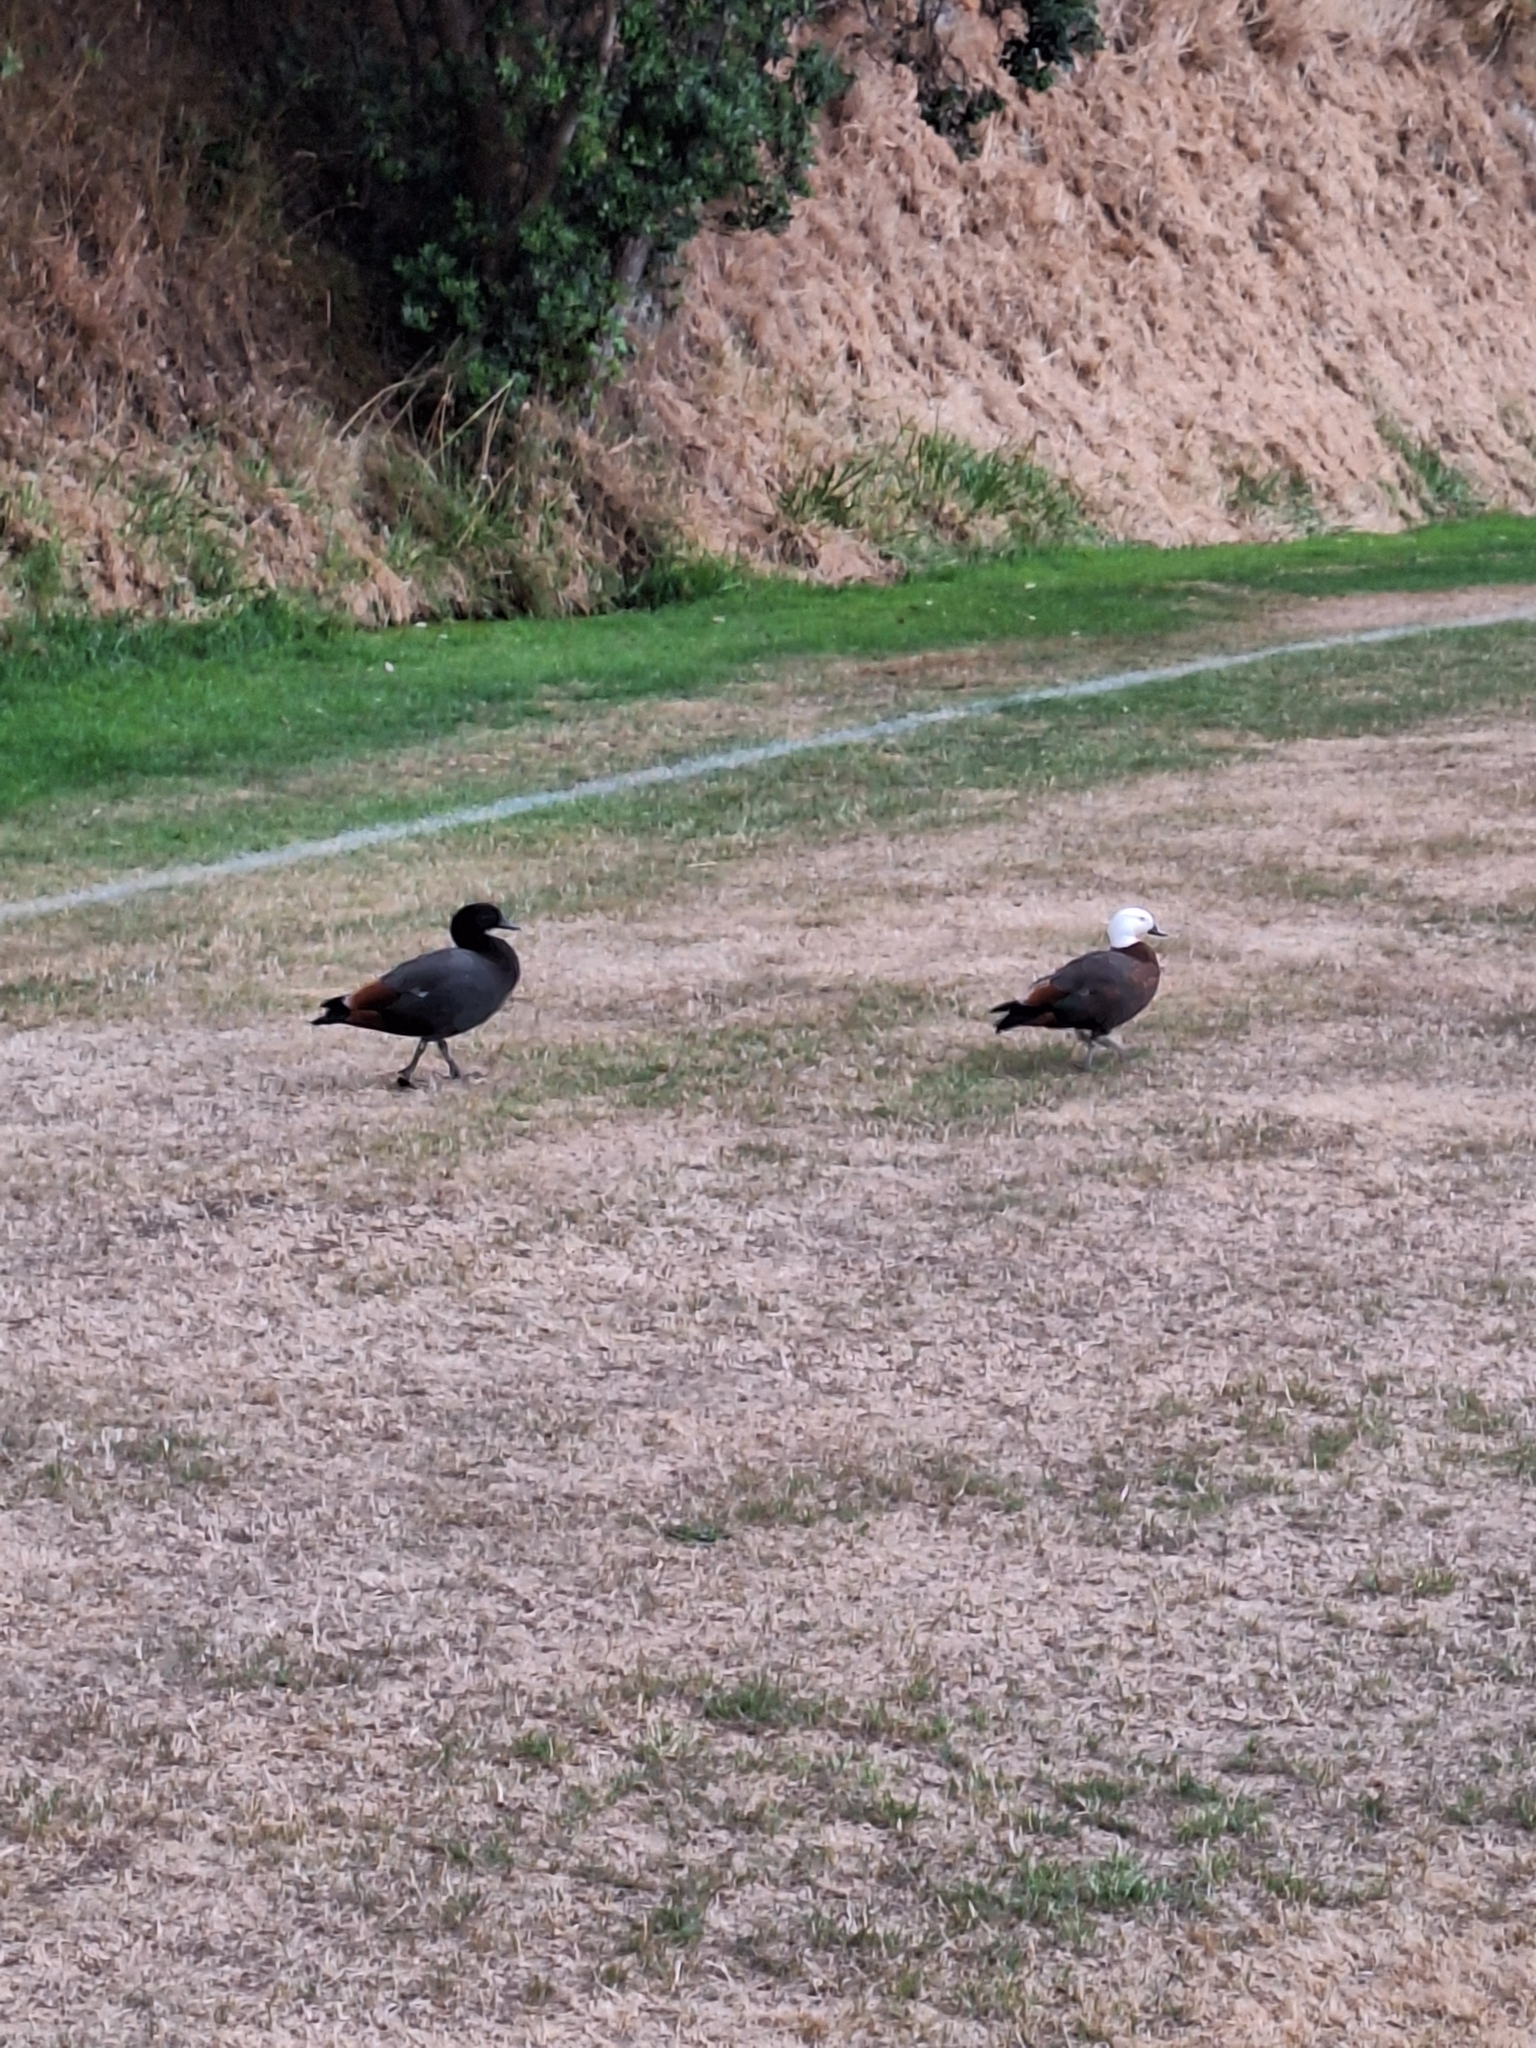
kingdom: Animalia
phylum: Chordata
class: Aves
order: Anseriformes
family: Anatidae
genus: Tadorna
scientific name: Tadorna variegata
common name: Paradise shelduck
